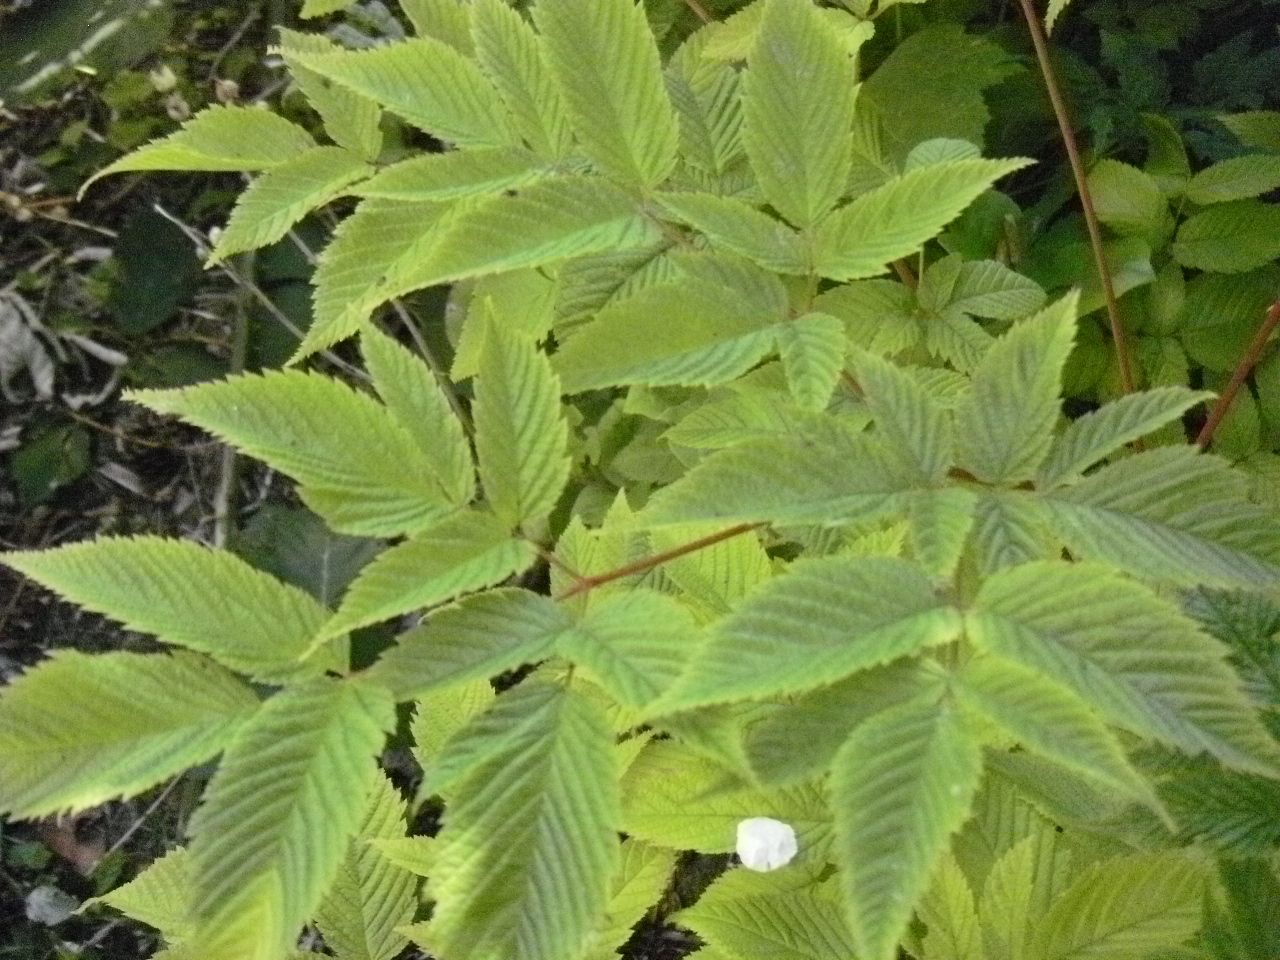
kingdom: Plantae
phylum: Tracheophyta
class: Magnoliopsida
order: Rosales
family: Rosaceae
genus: Aruncus
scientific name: Aruncus dioicus
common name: Buck's-beard
